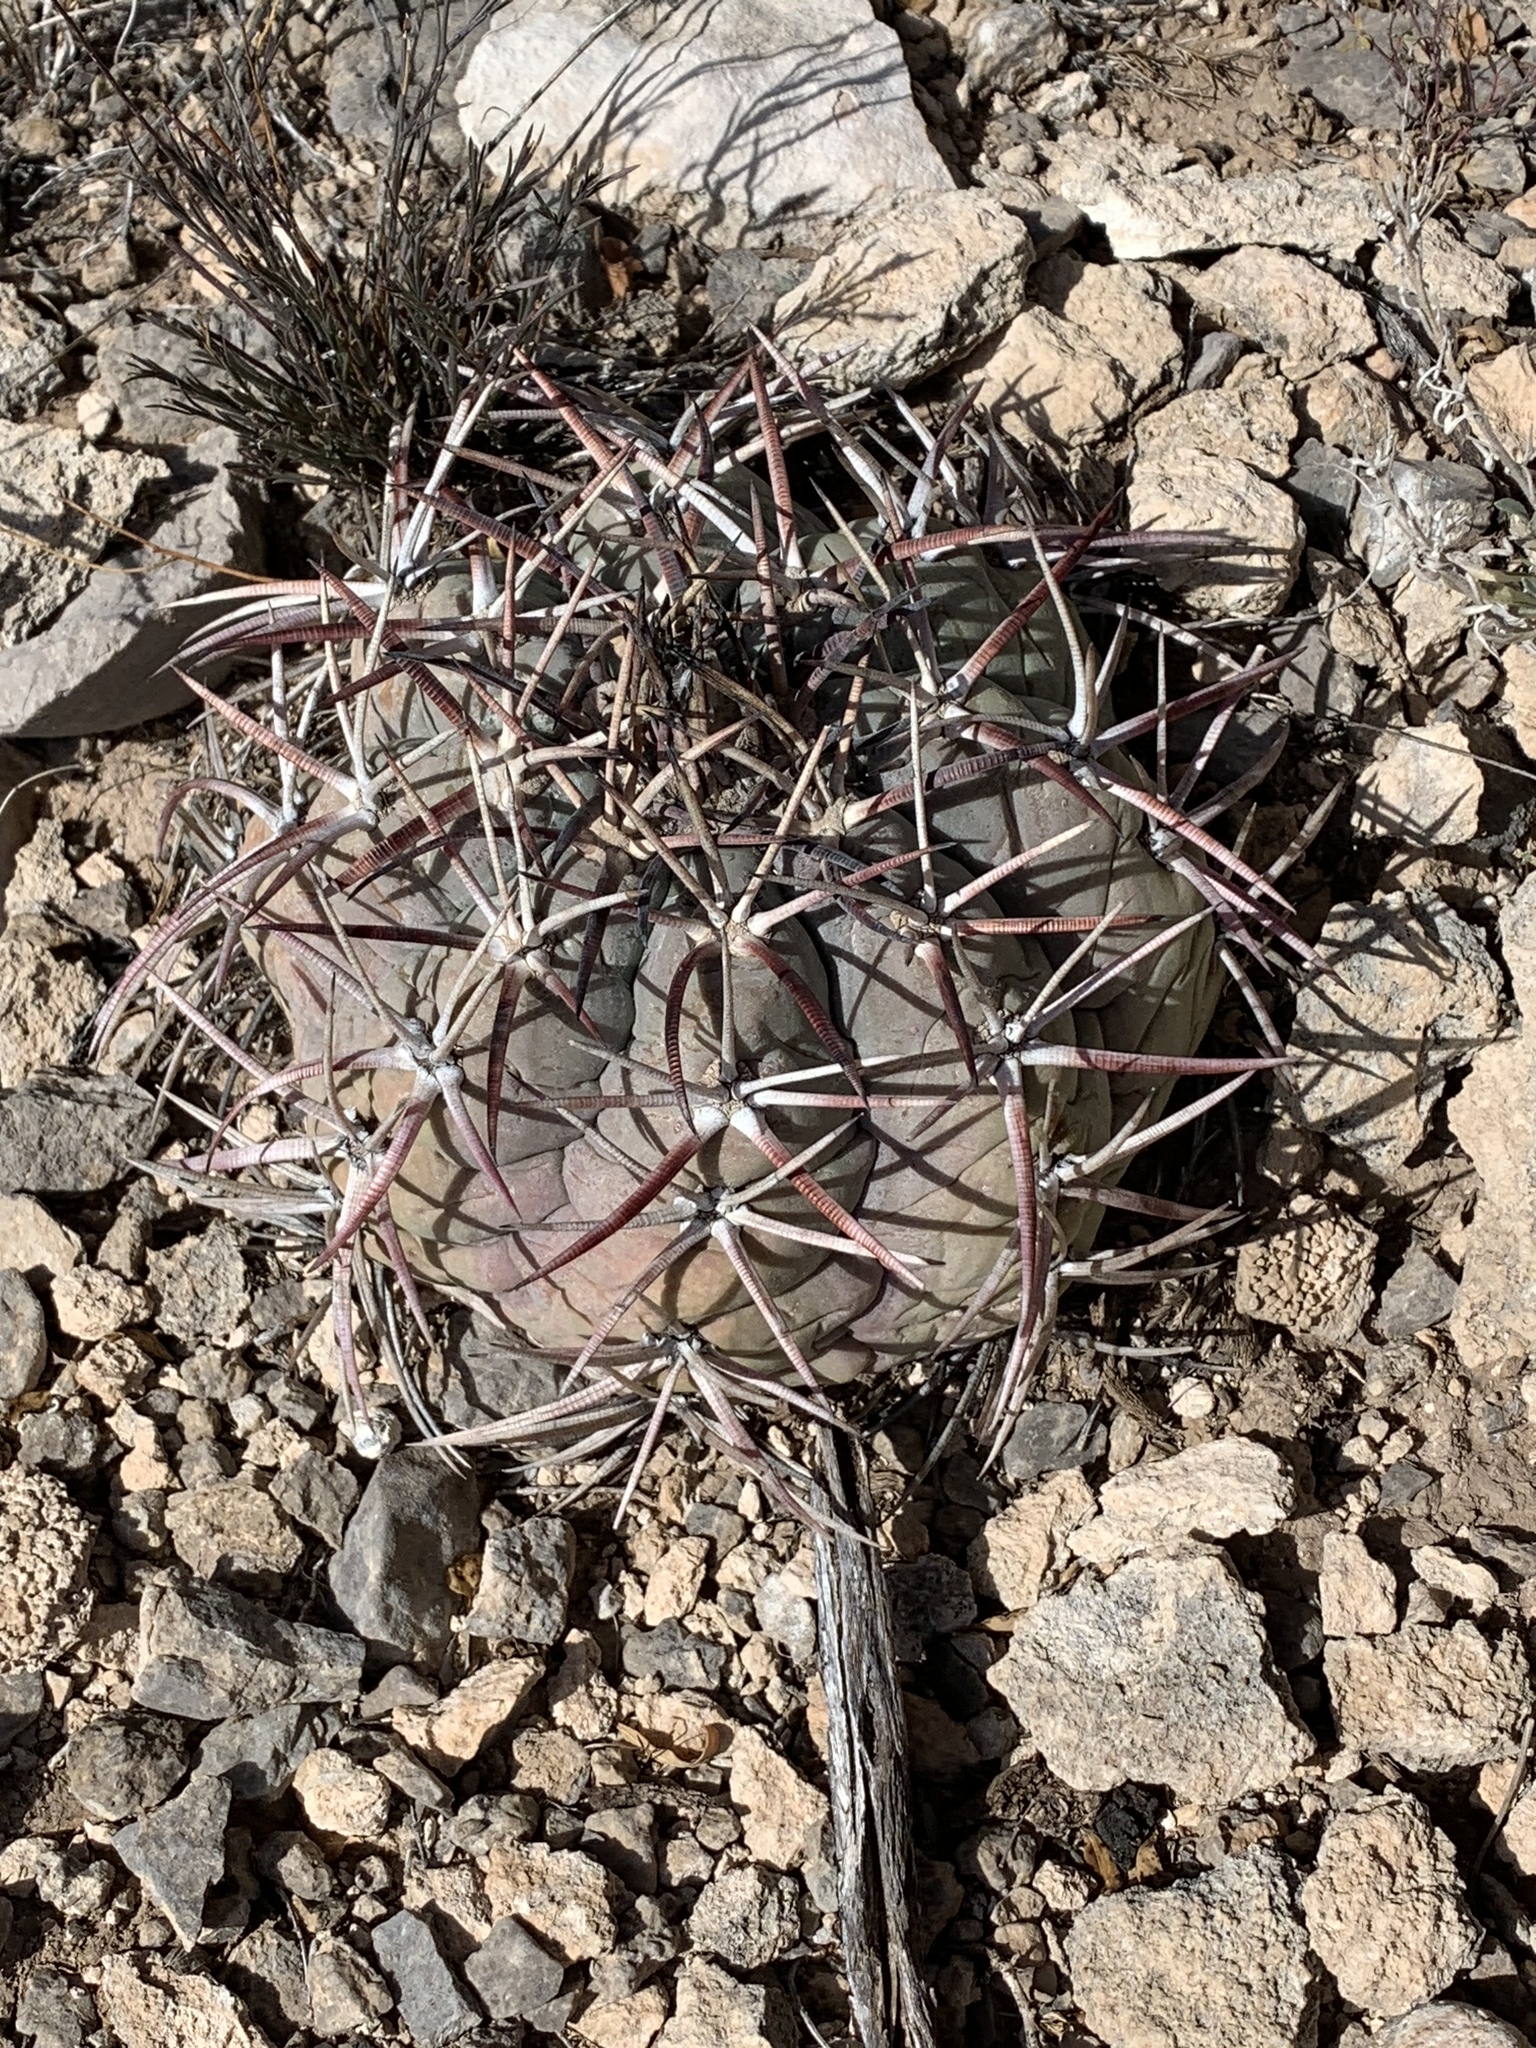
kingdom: Plantae
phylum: Tracheophyta
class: Magnoliopsida
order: Caryophyllales
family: Cactaceae
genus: Echinocactus
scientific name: Echinocactus horizonthalonius
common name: Devilshead
